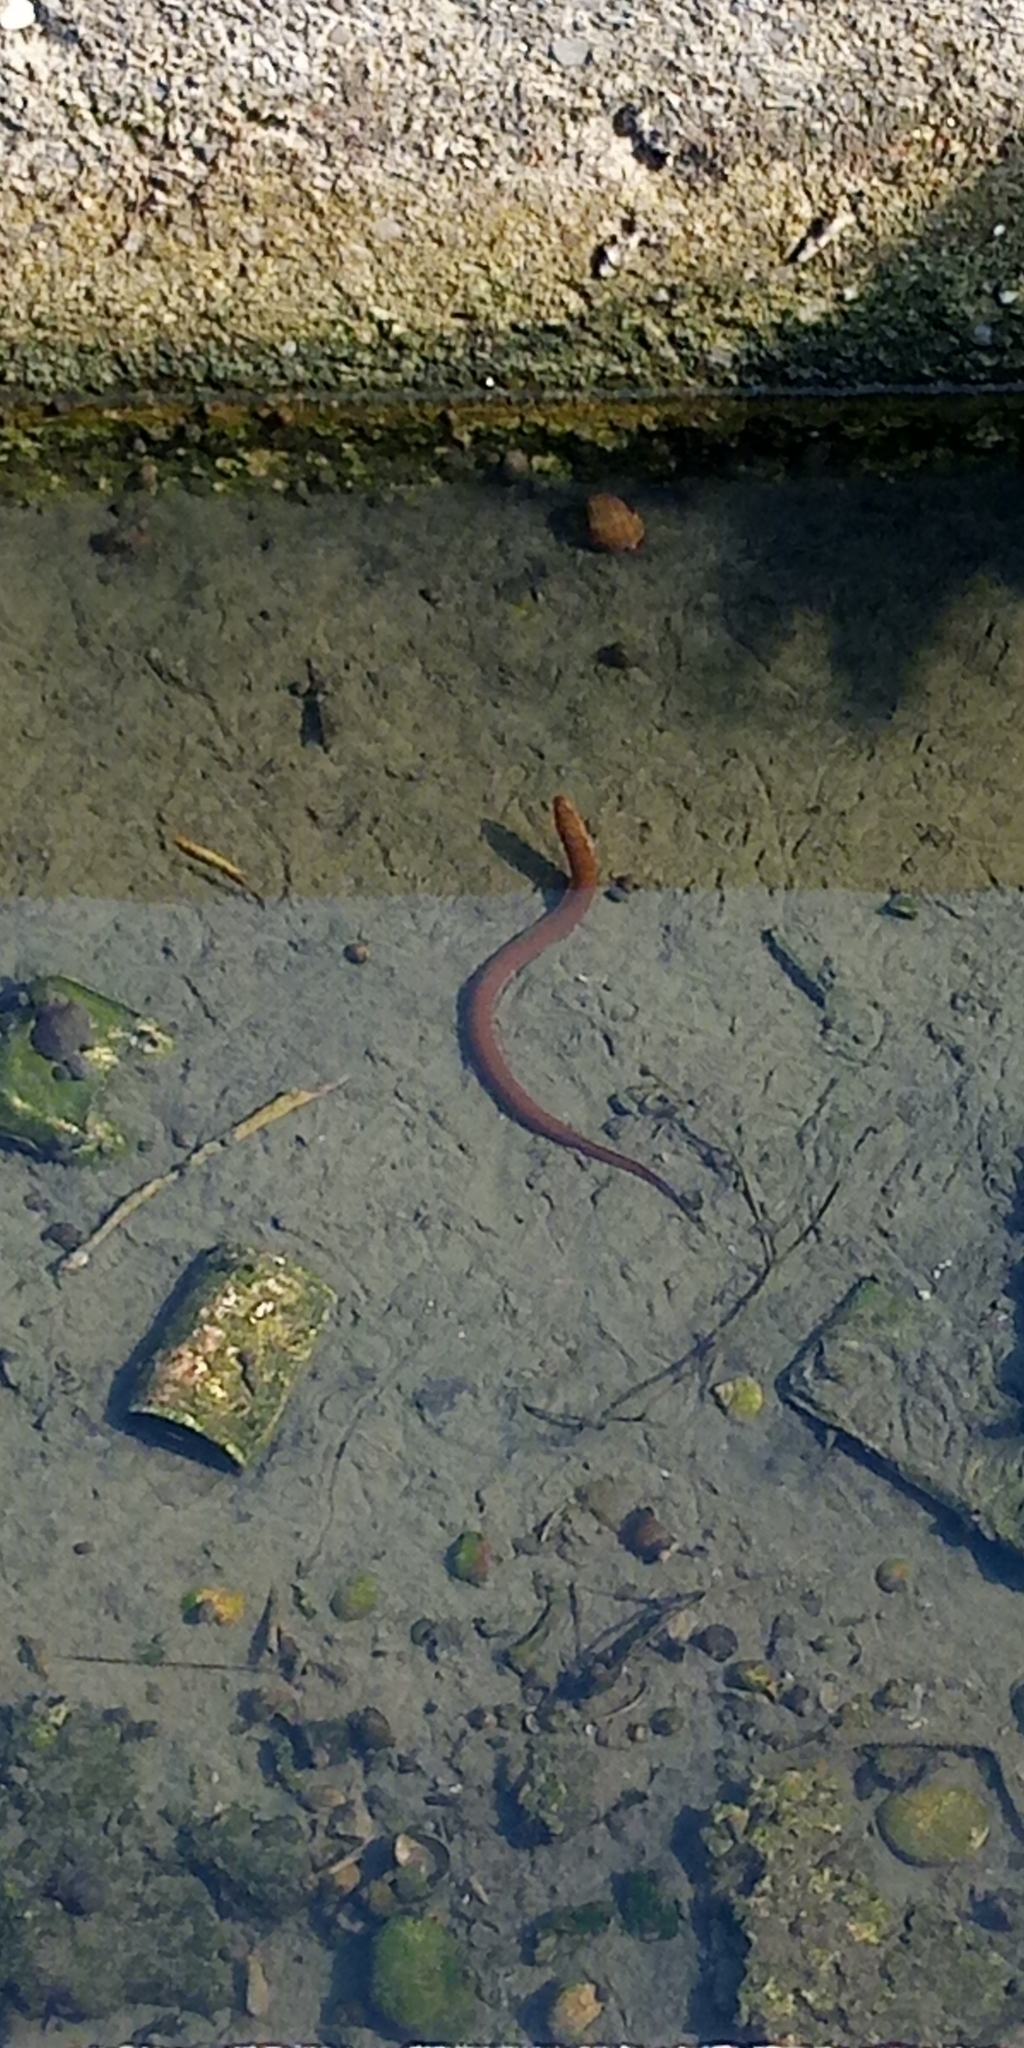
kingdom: Animalia
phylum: Chordata
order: Synbranchiformes
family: Synbranchidae
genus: Monopterus
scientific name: Monopterus albus
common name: Asian swamp eel
